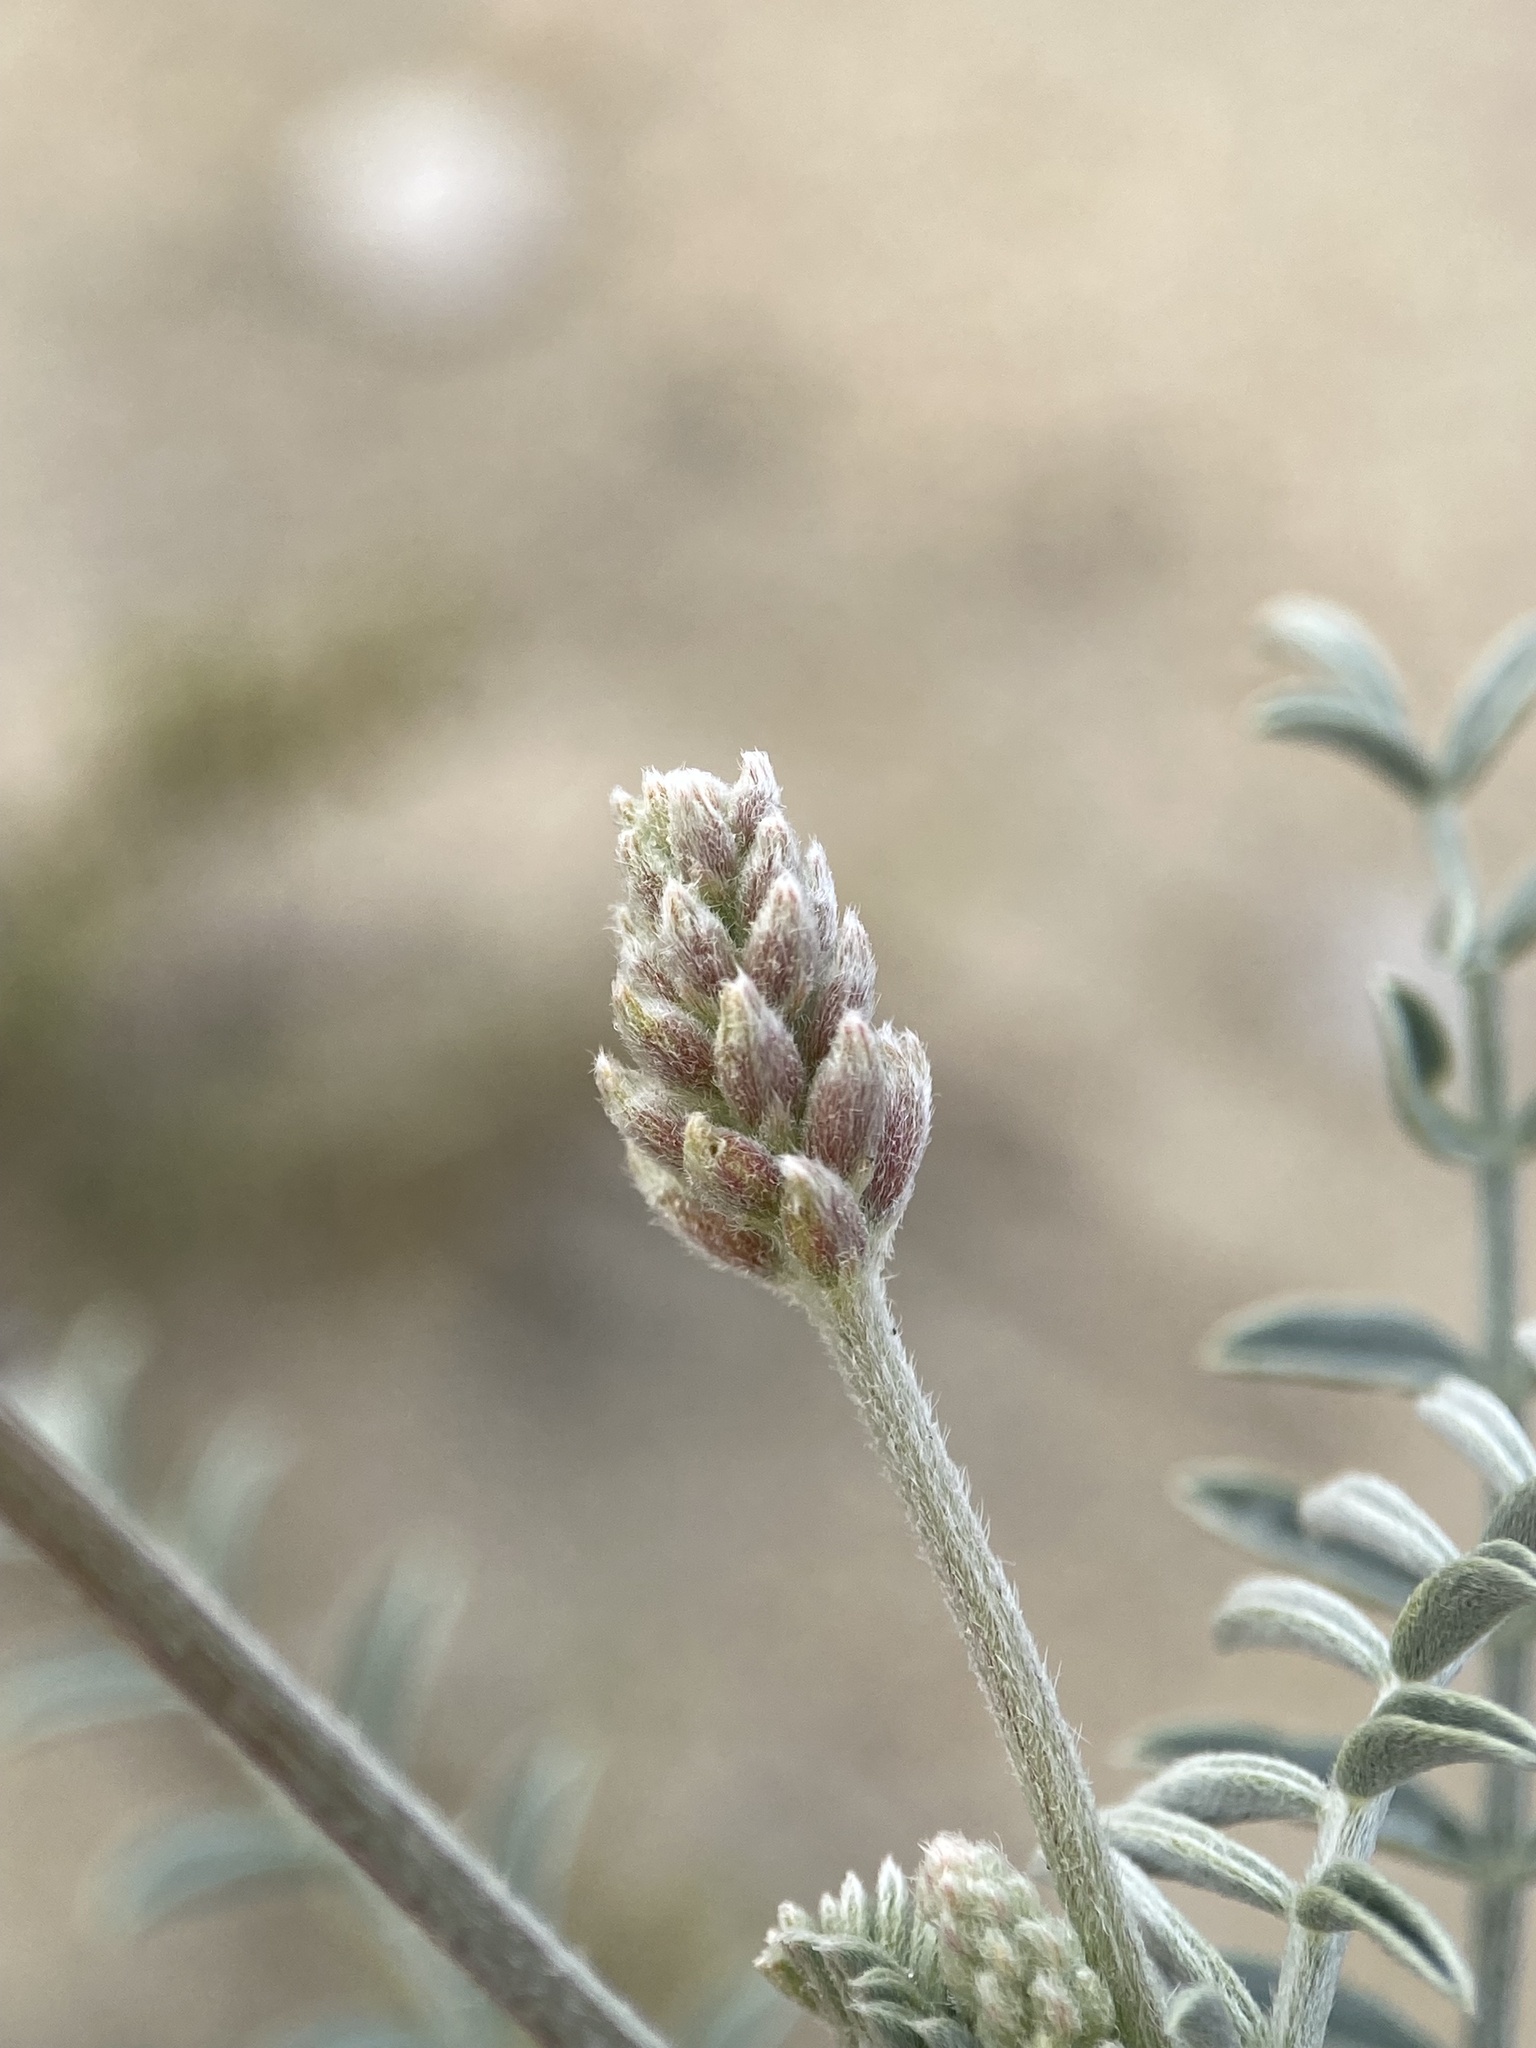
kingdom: Plantae
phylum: Tracheophyta
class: Magnoliopsida
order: Fabales
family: Fabaceae
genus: Astragalus
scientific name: Astragalus magdalenae
